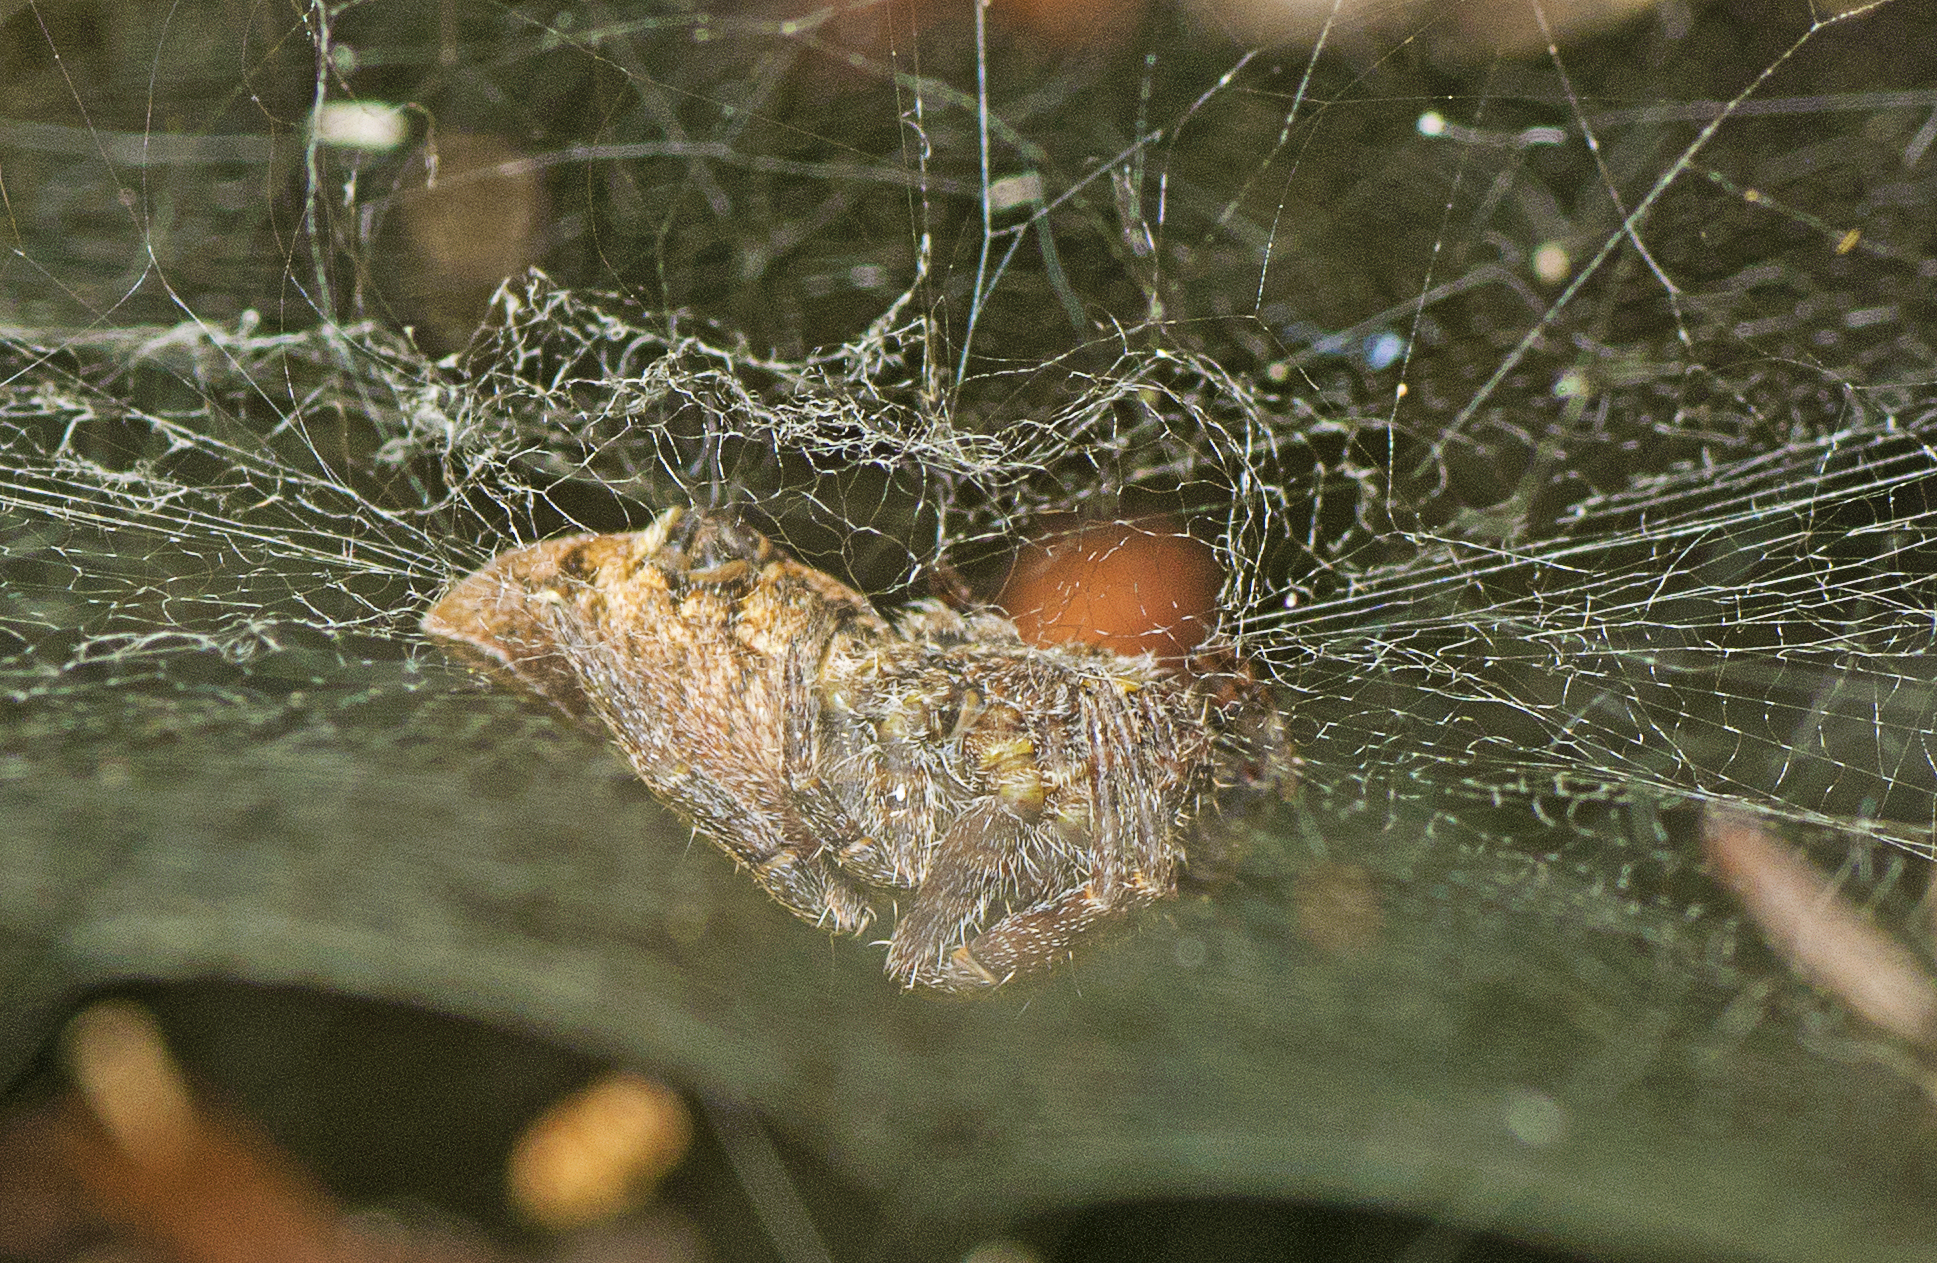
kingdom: Animalia
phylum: Arthropoda
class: Arachnida
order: Araneae
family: Araneidae
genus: Cyrtophora
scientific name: Cyrtophora exanthematica
